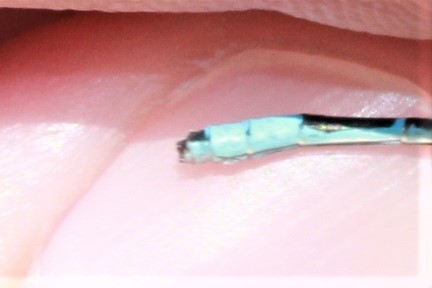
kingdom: Animalia
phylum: Arthropoda
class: Insecta
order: Odonata
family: Coenagrionidae
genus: Enallagma
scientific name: Enallagma ebrium
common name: Marsh bluet
